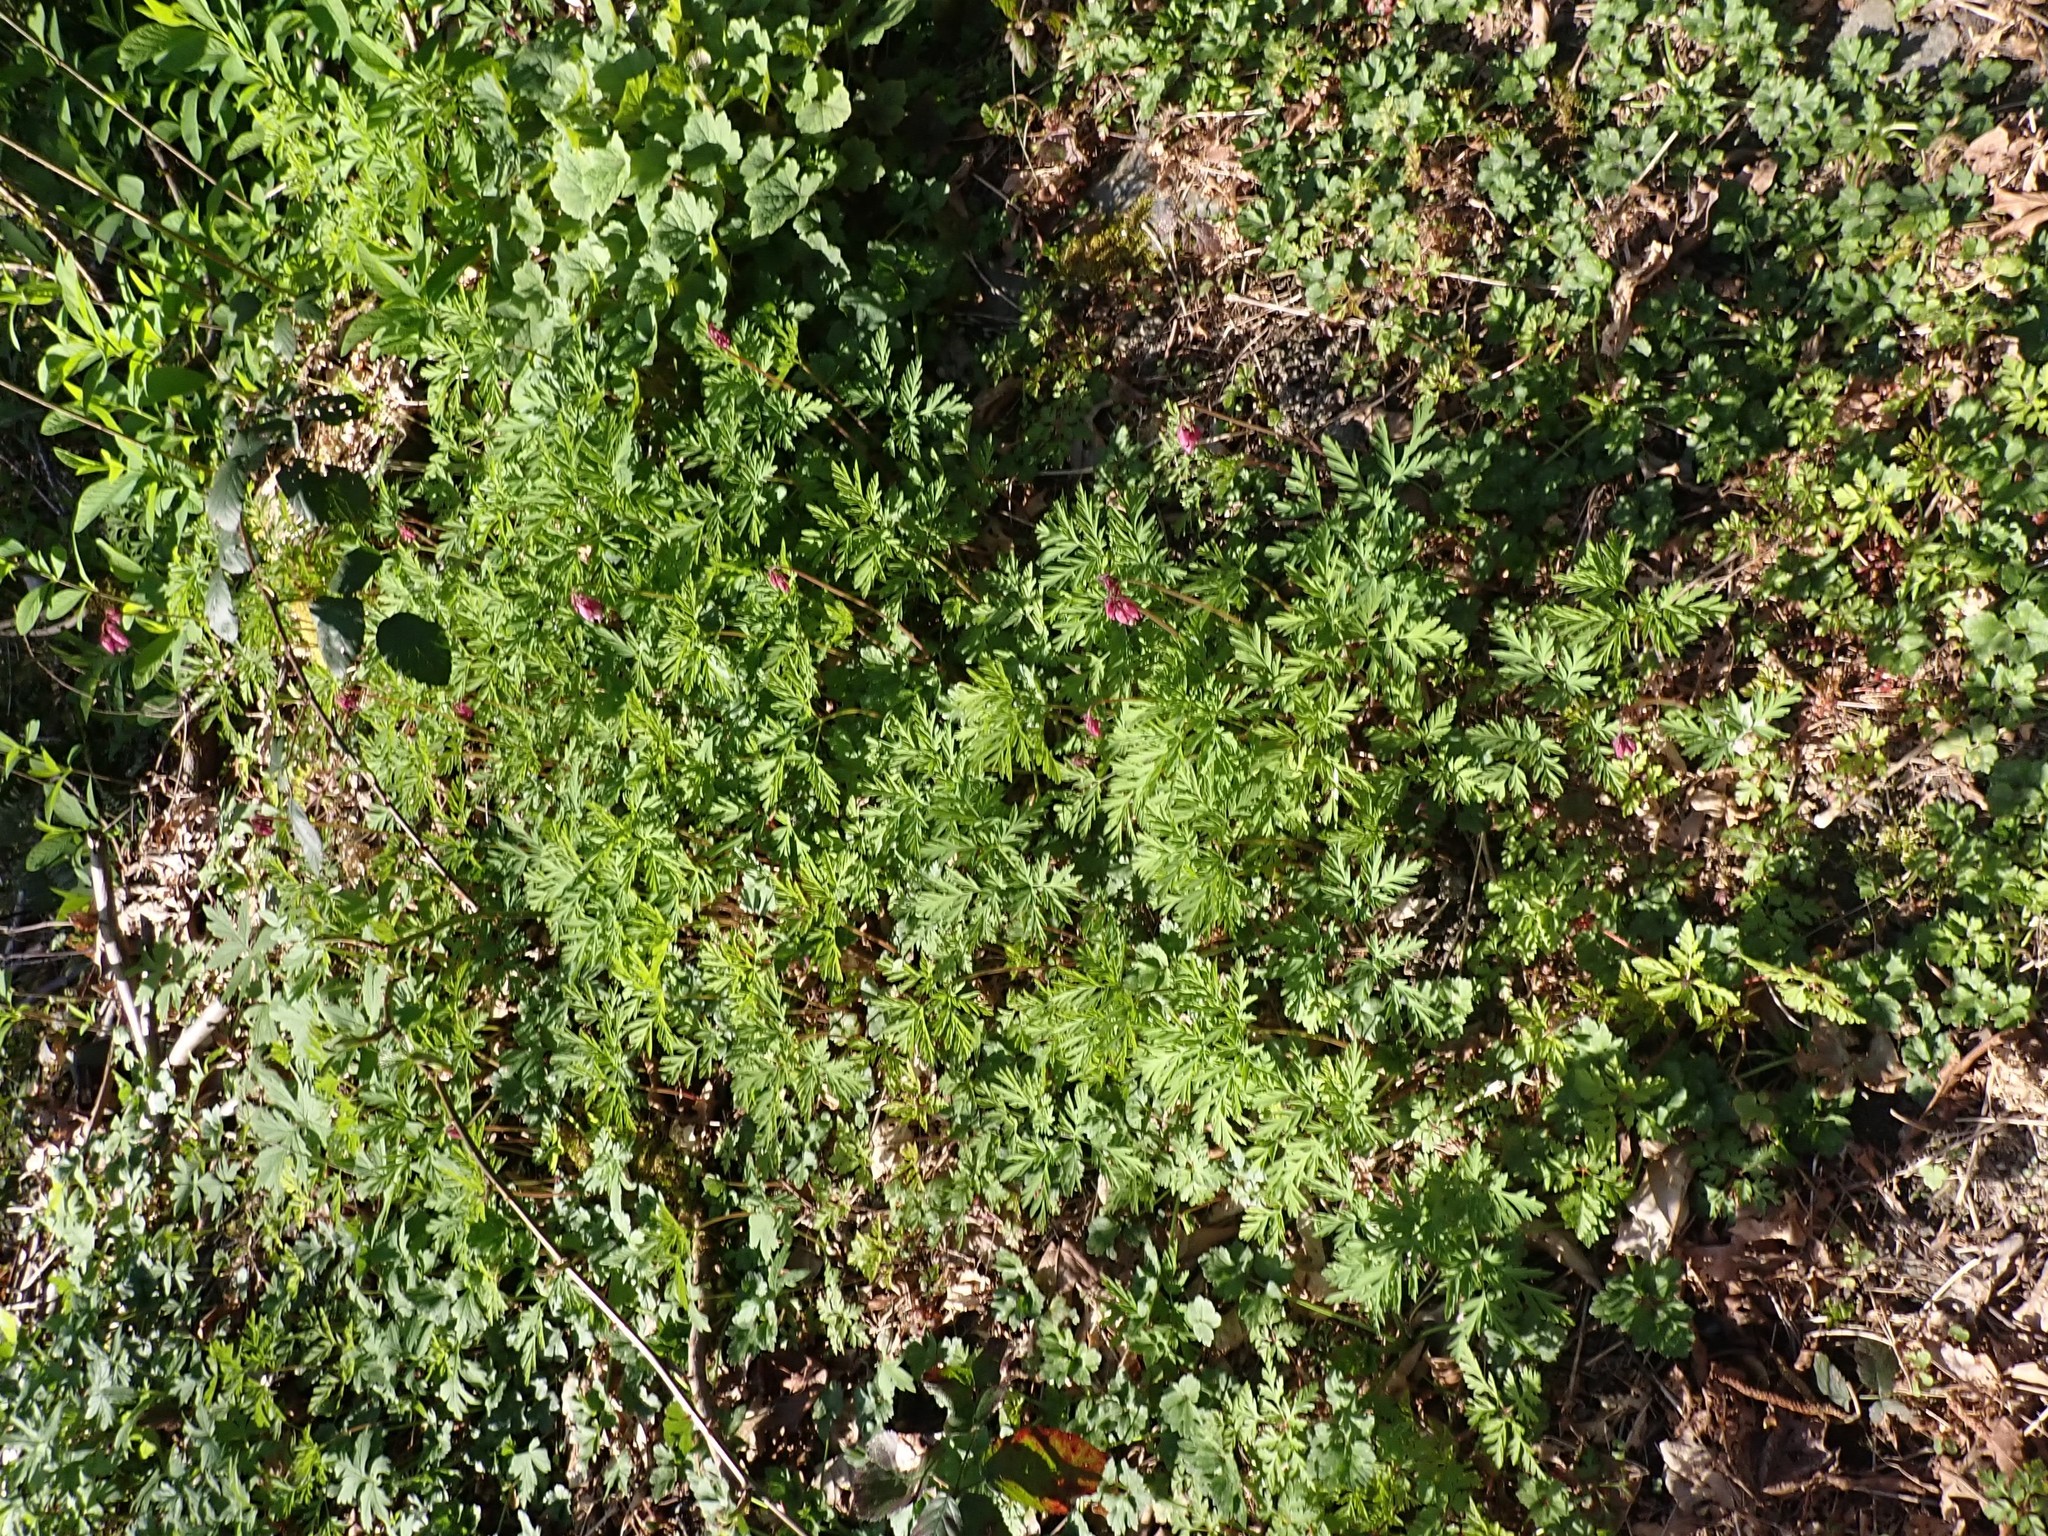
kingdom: Plantae
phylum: Tracheophyta
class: Magnoliopsida
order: Ranunculales
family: Papaveraceae
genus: Dicentra
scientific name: Dicentra formosa
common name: Bleeding-heart
